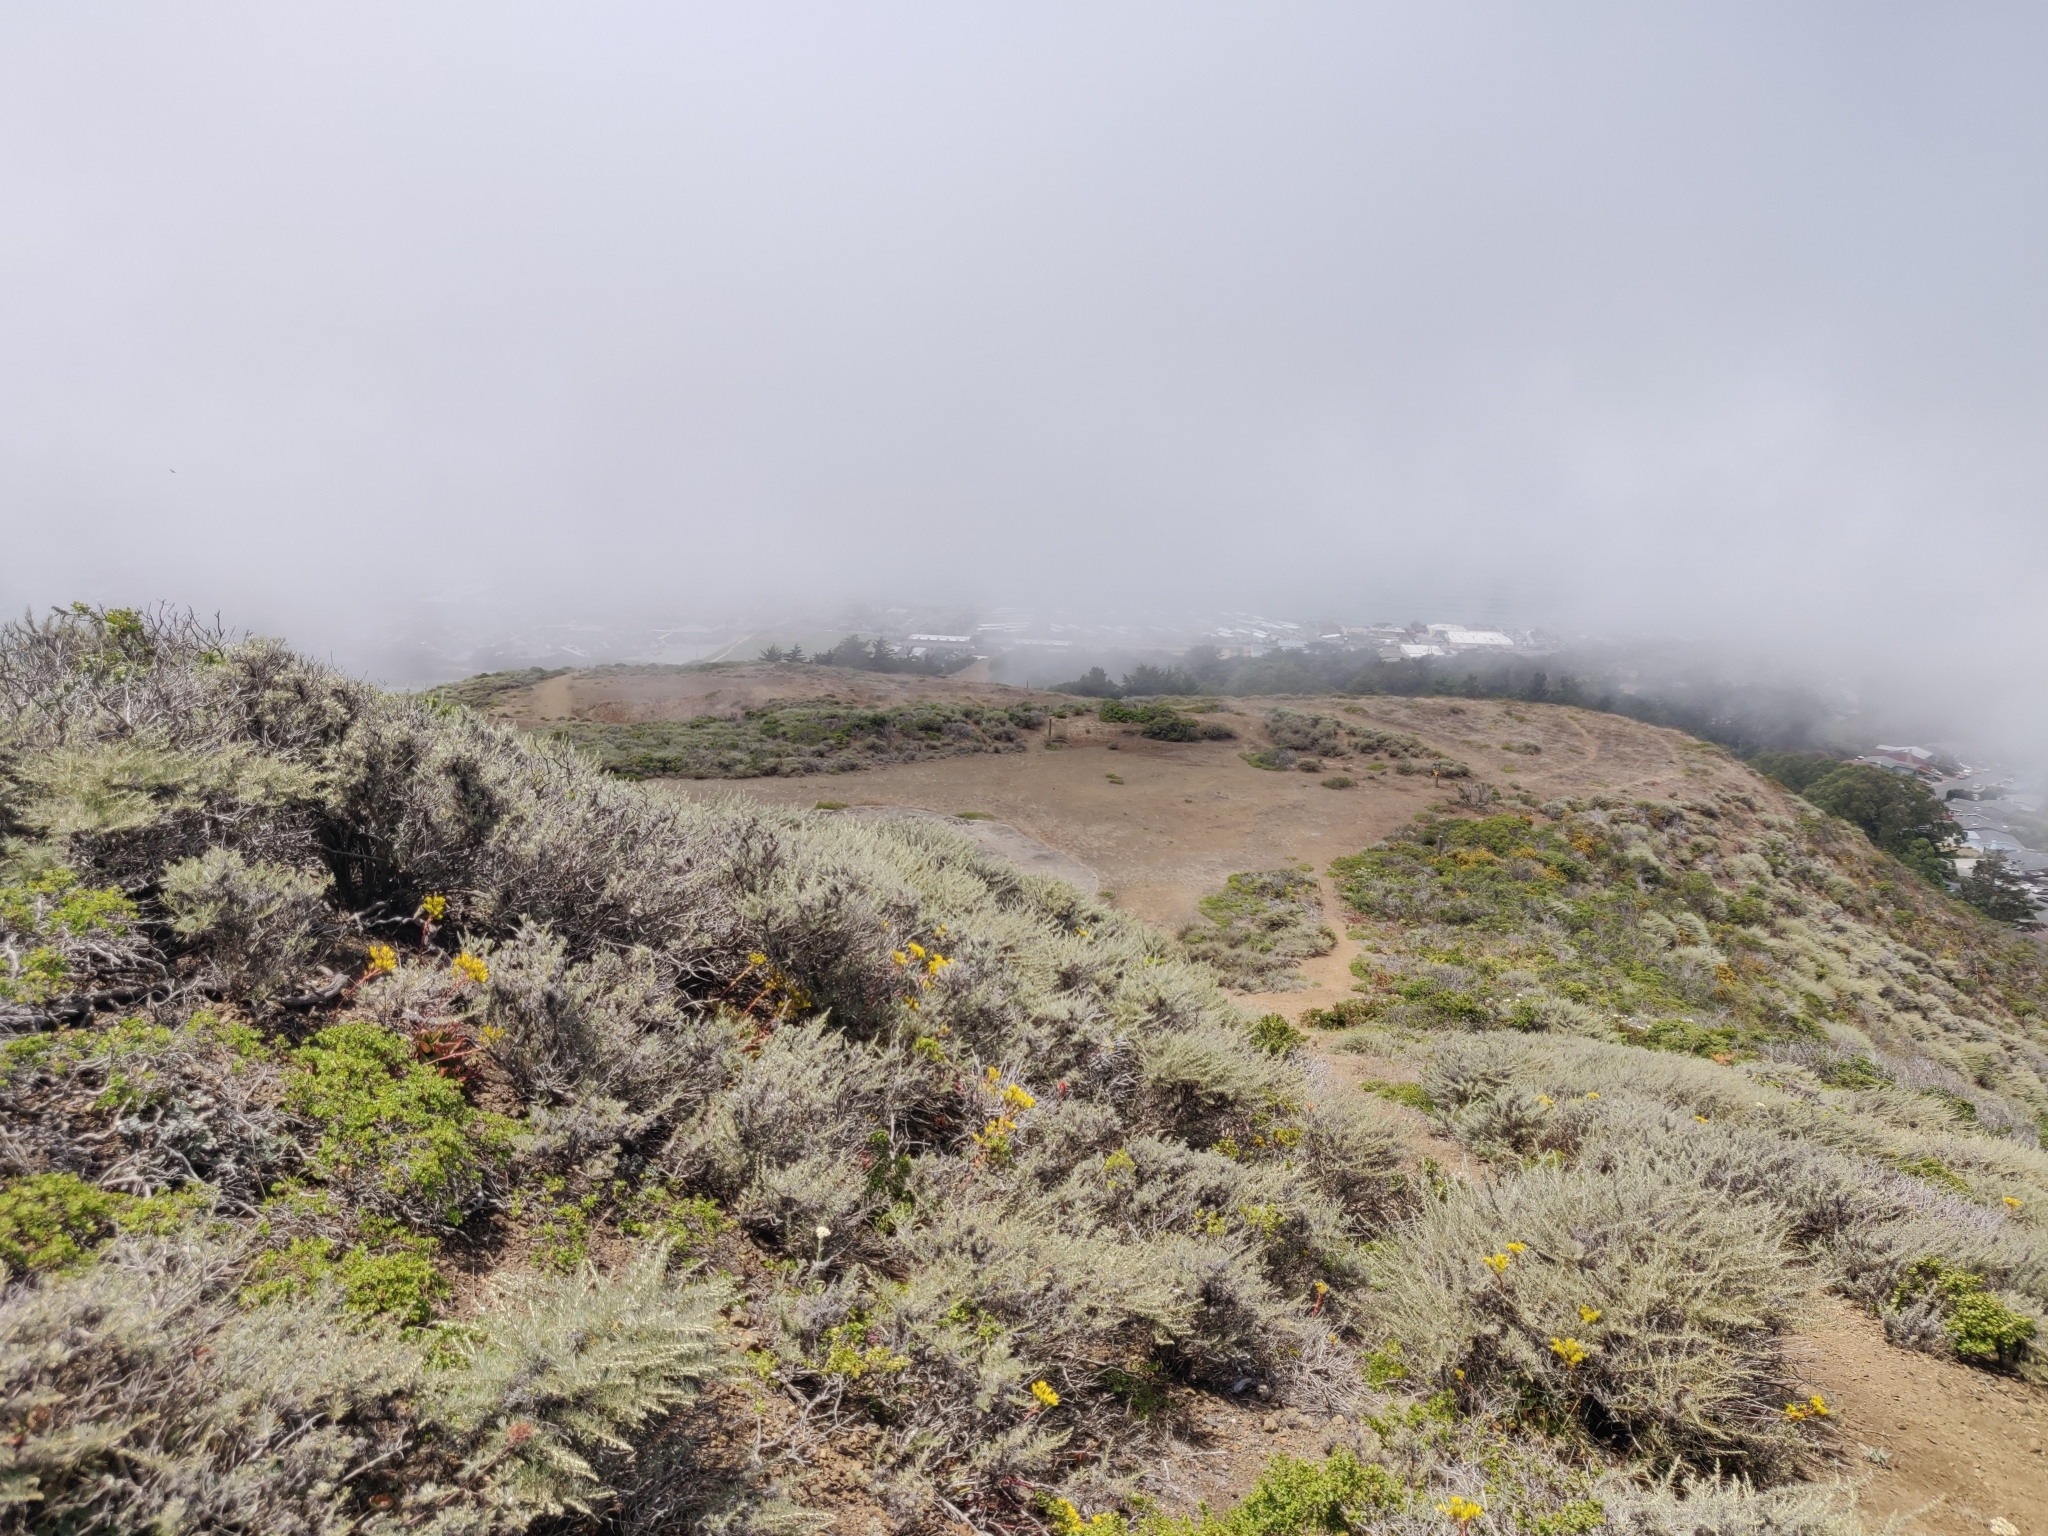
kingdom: Plantae
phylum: Tracheophyta
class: Magnoliopsida
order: Saxifragales
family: Crassulaceae
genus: Dudleya
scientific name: Dudleya caespitosa
